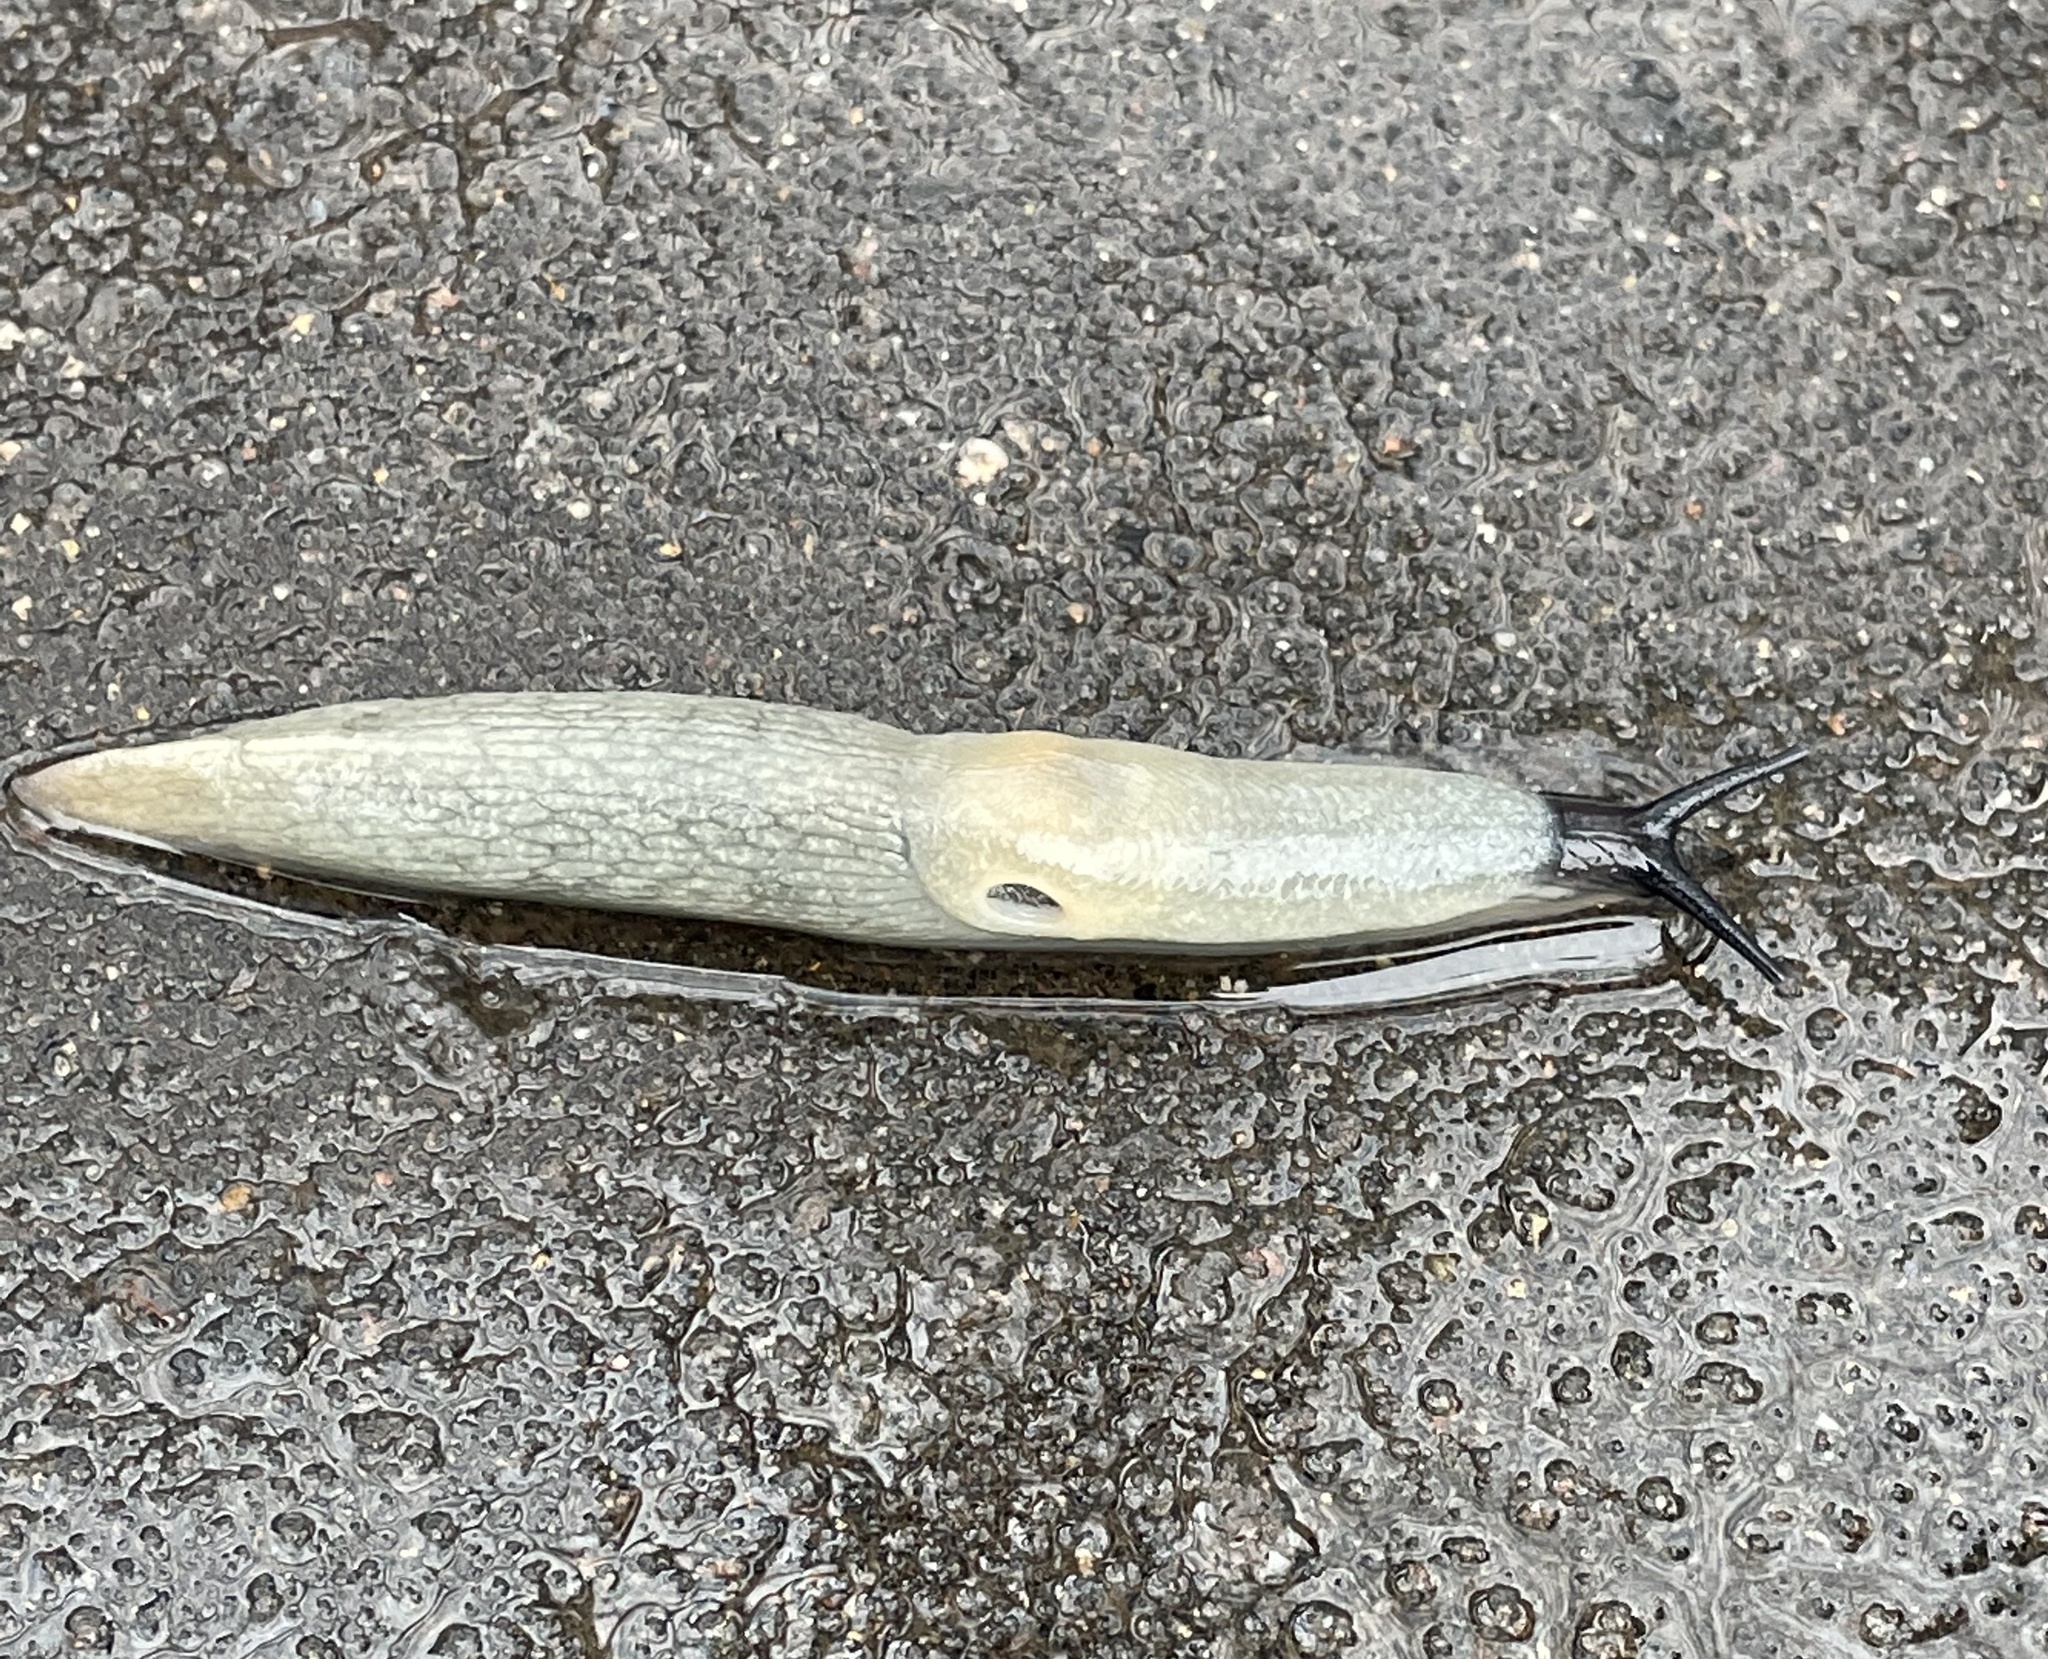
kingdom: Animalia
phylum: Mollusca
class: Gastropoda
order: Stylommatophora
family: Agriolimacidae
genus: Krynickillus
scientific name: Krynickillus melanocephalus
